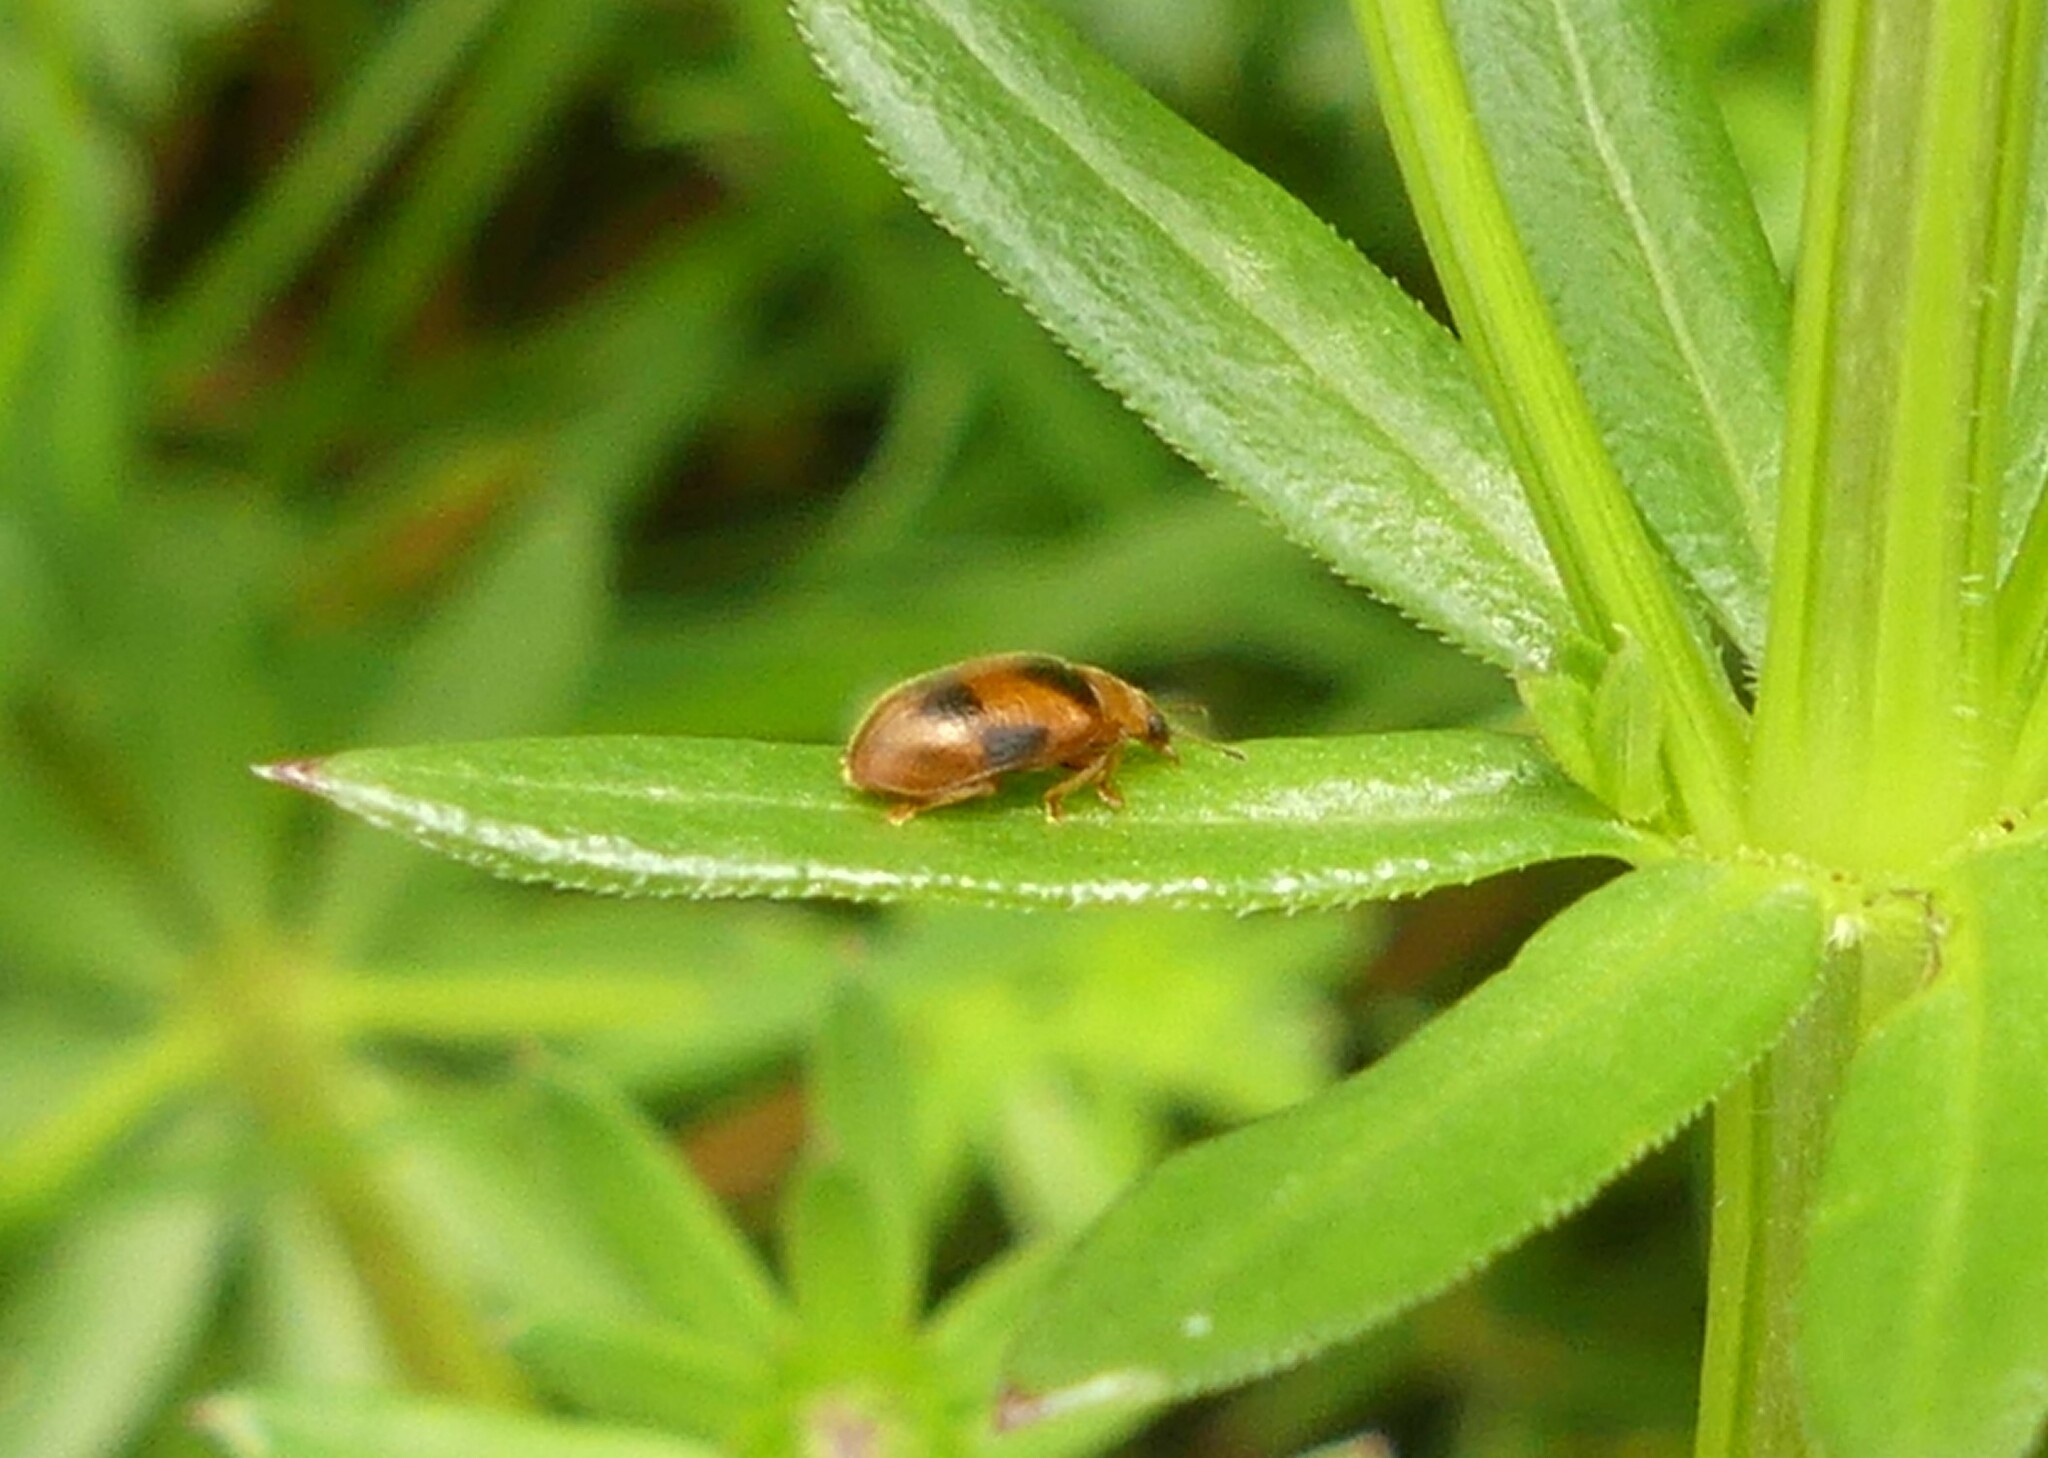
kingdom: Animalia
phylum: Arthropoda
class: Insecta
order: Coleoptera
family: Coccinellidae
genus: Coccidula
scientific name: Coccidula scutellata
